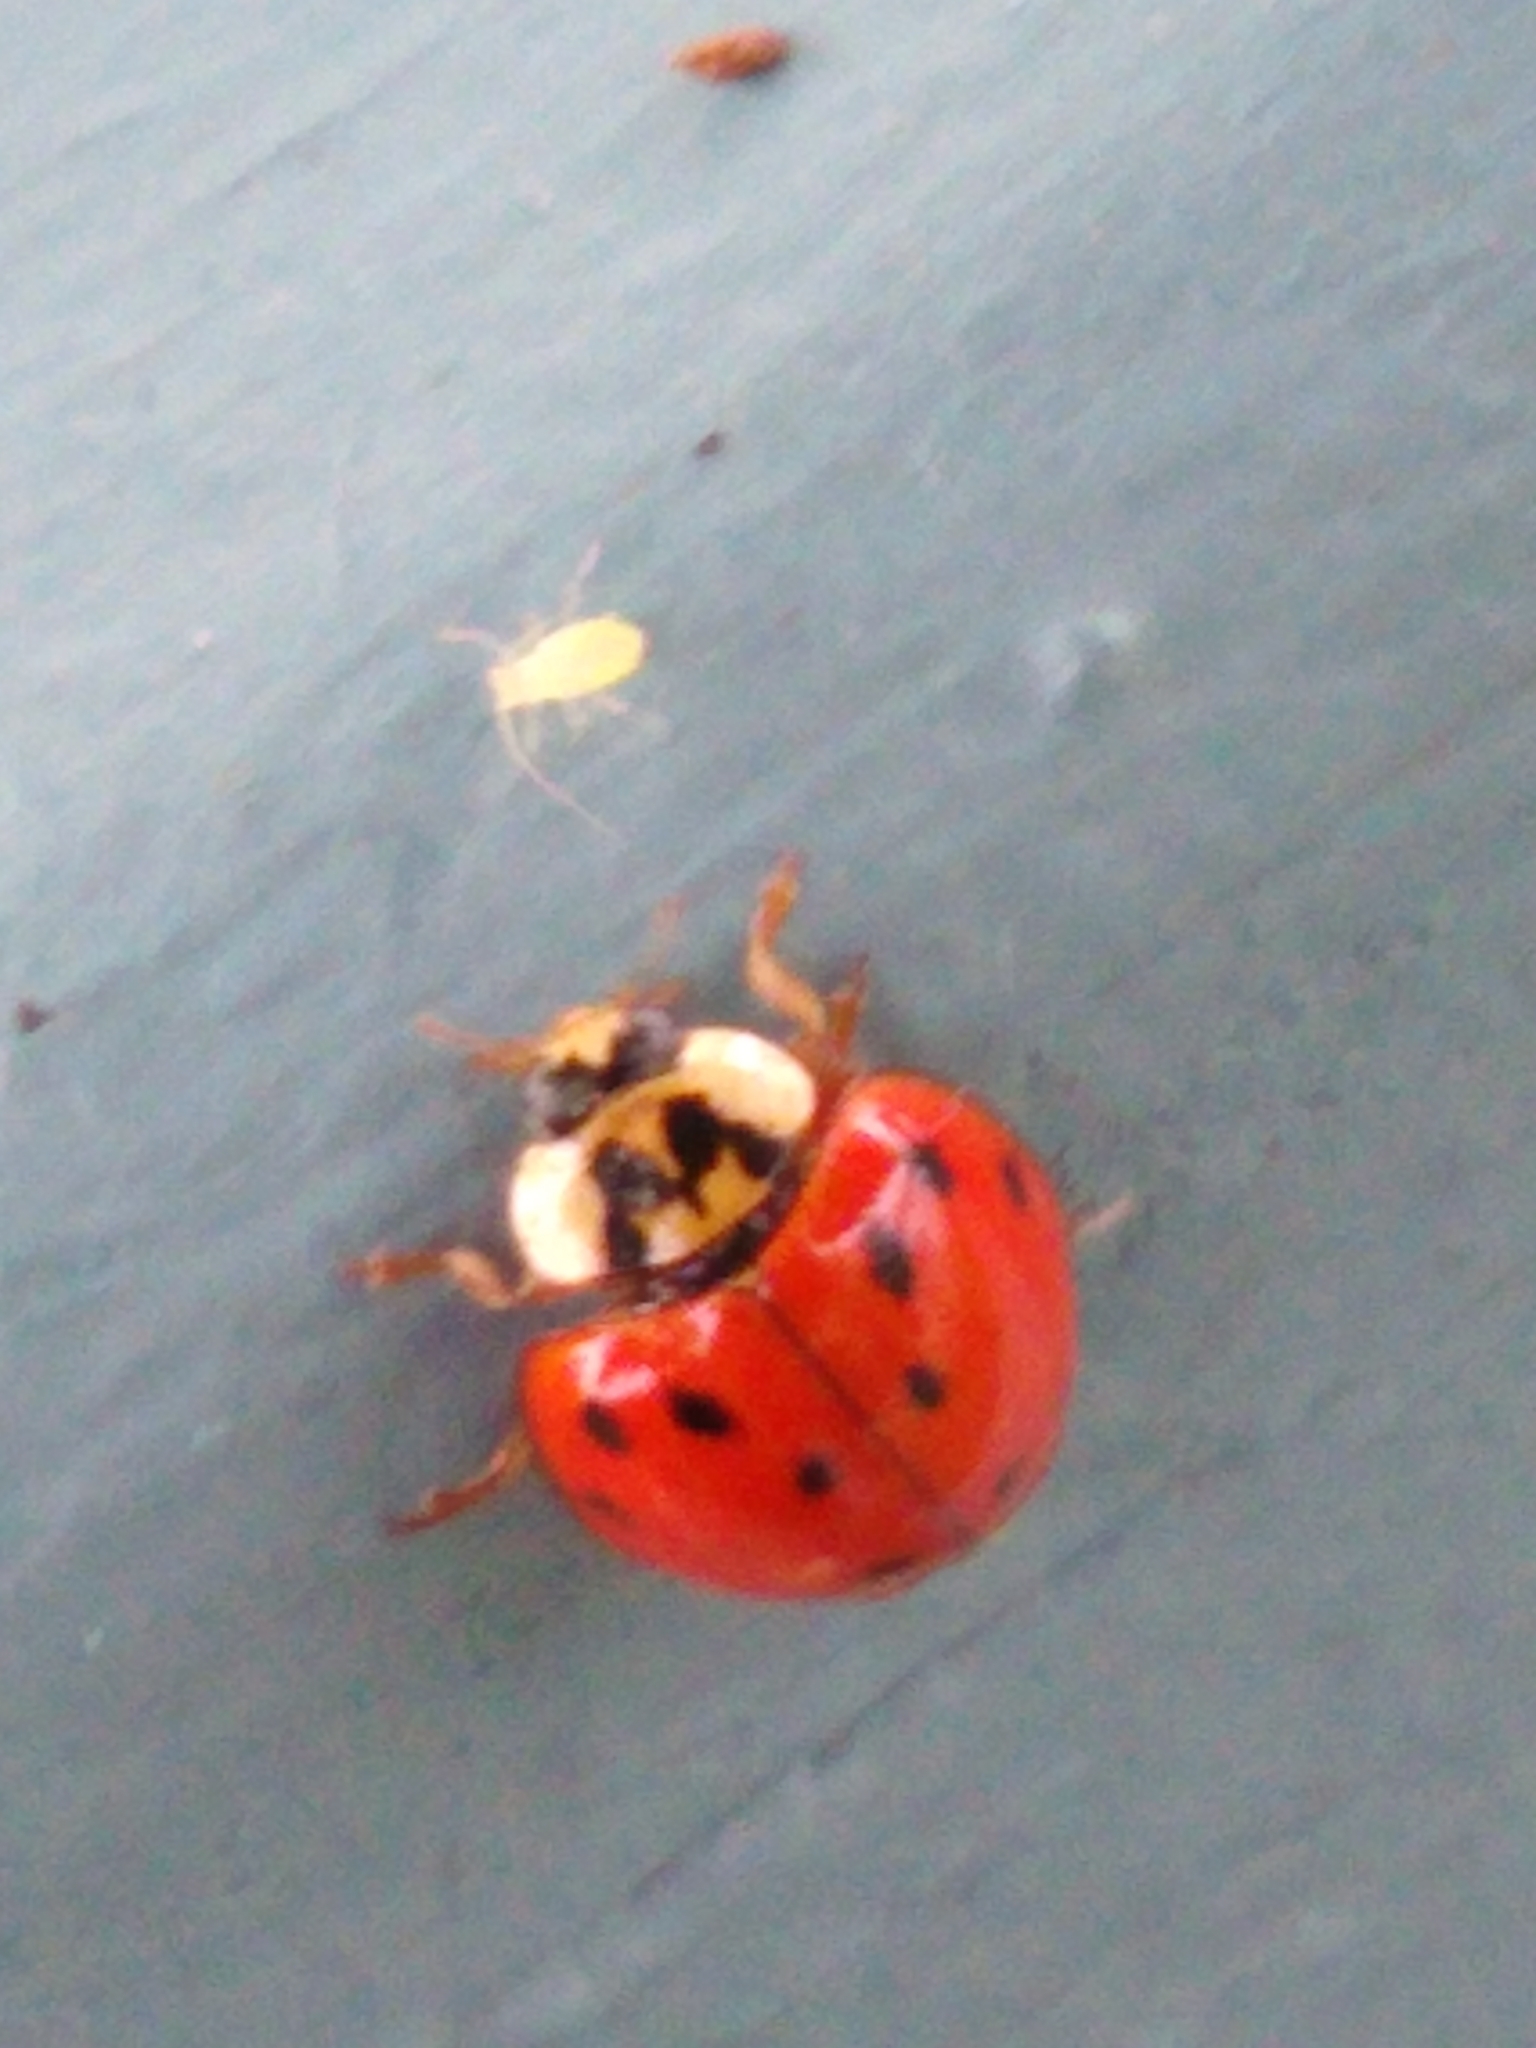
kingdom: Animalia
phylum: Arthropoda
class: Insecta
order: Coleoptera
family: Coccinellidae
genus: Harmonia
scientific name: Harmonia axyridis
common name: Harlequin ladybird
